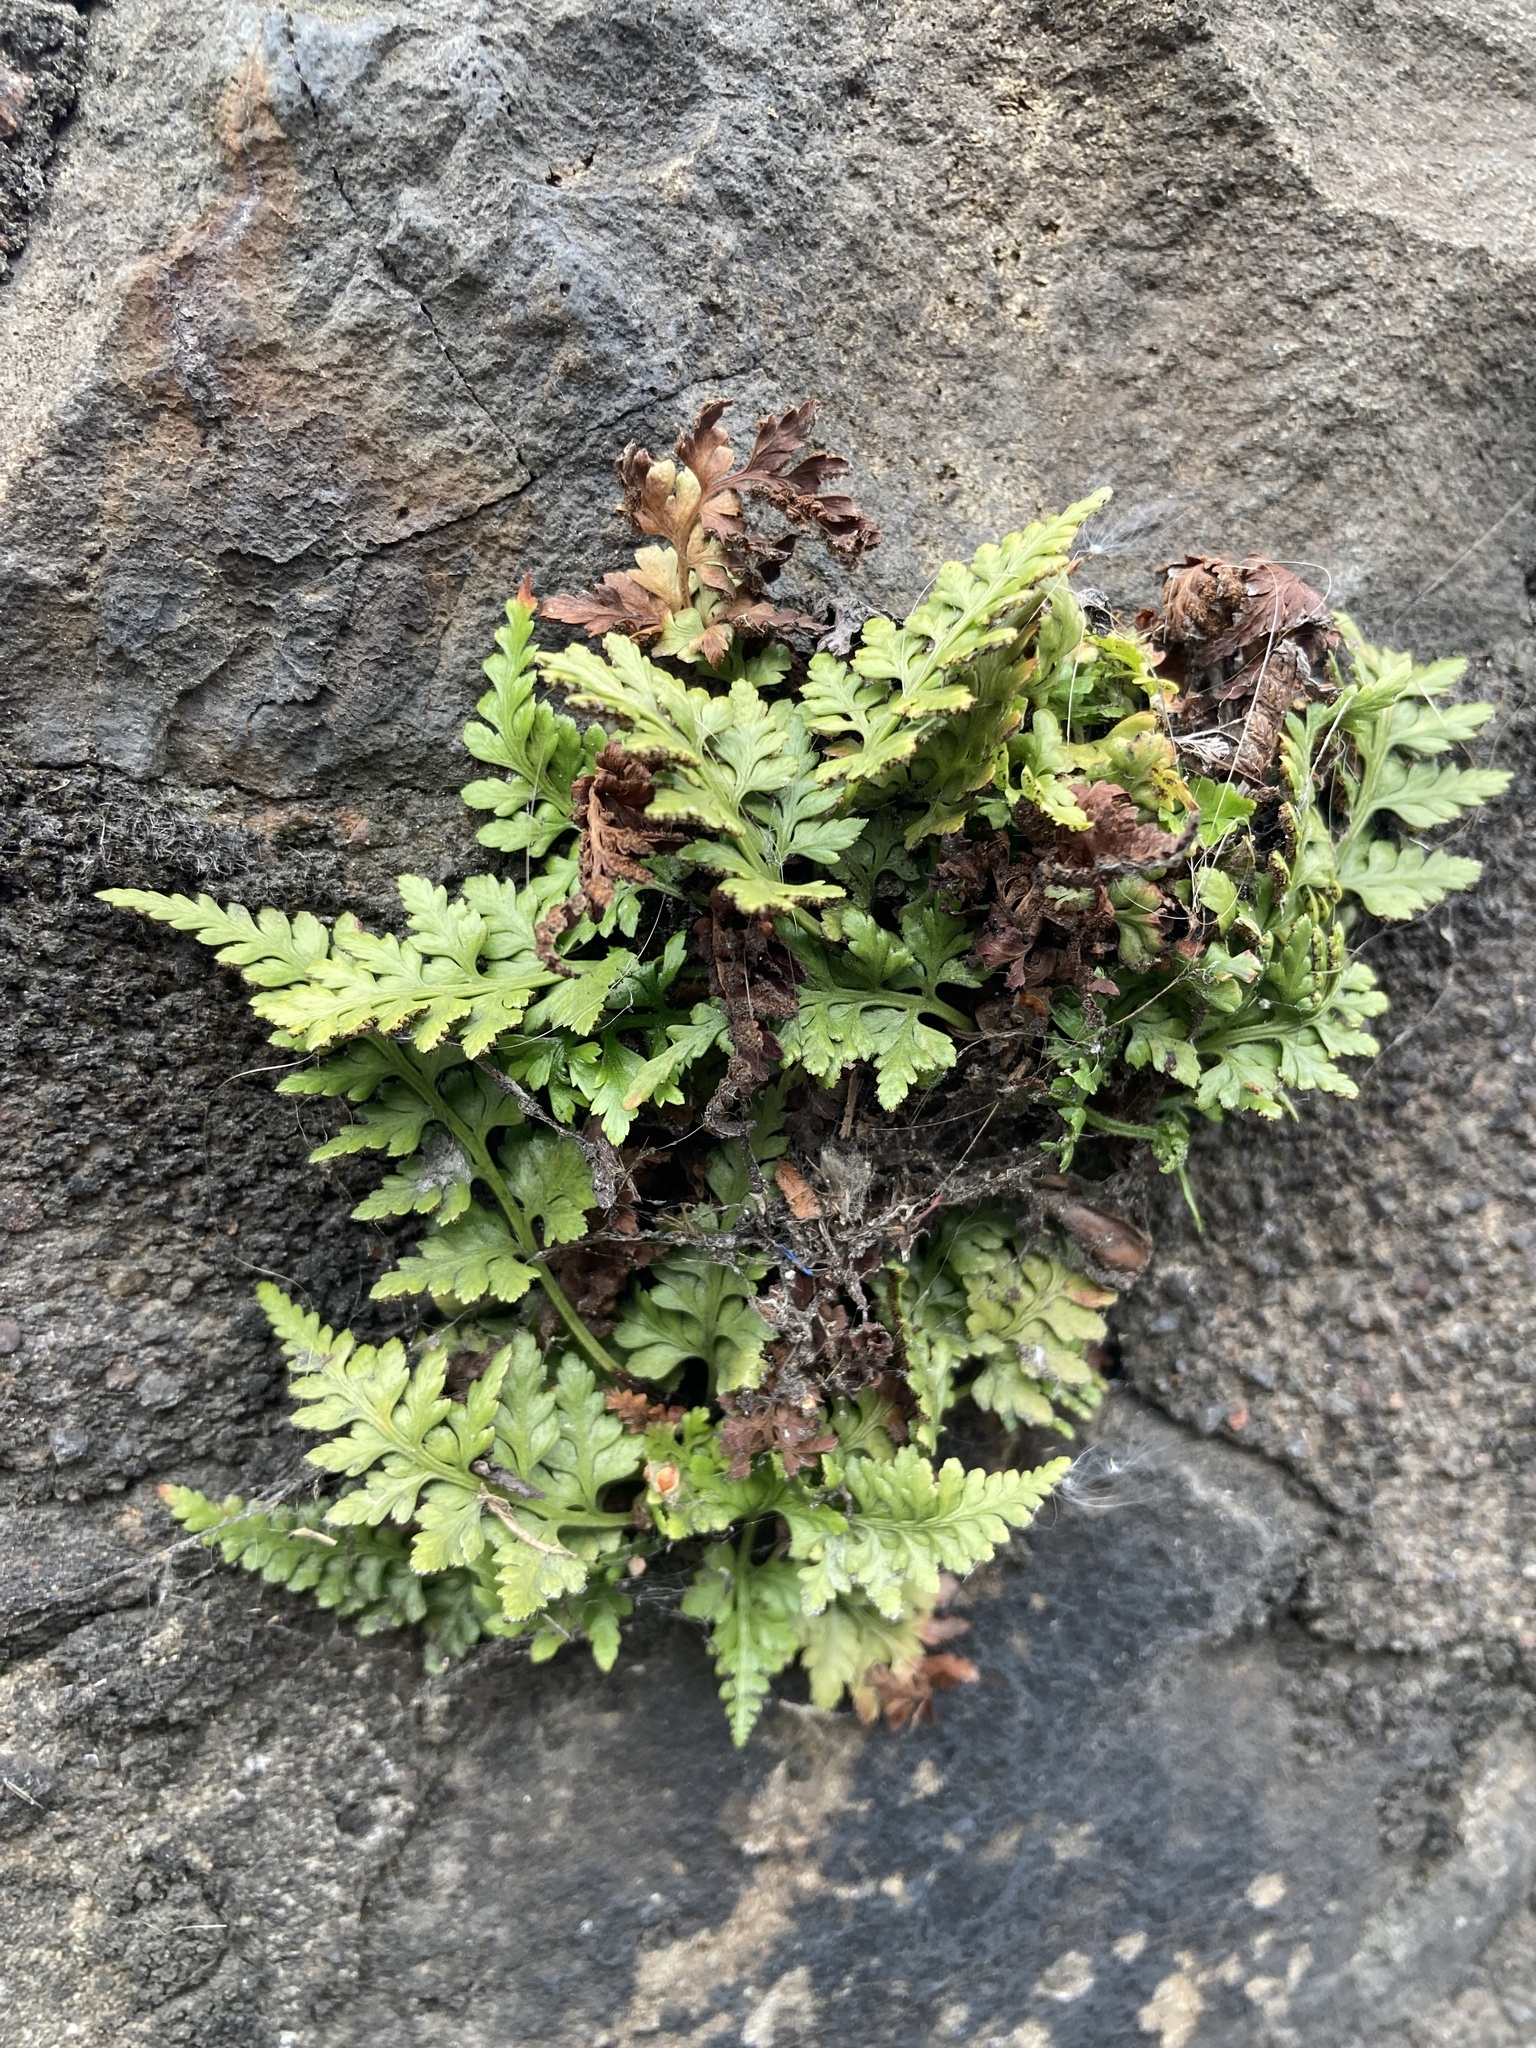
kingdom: Plantae
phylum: Tracheophyta
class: Polypodiopsida
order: Polypodiales
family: Aspleniaceae
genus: Asplenium
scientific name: Asplenium adiantum-nigrum
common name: Black spleenwort
